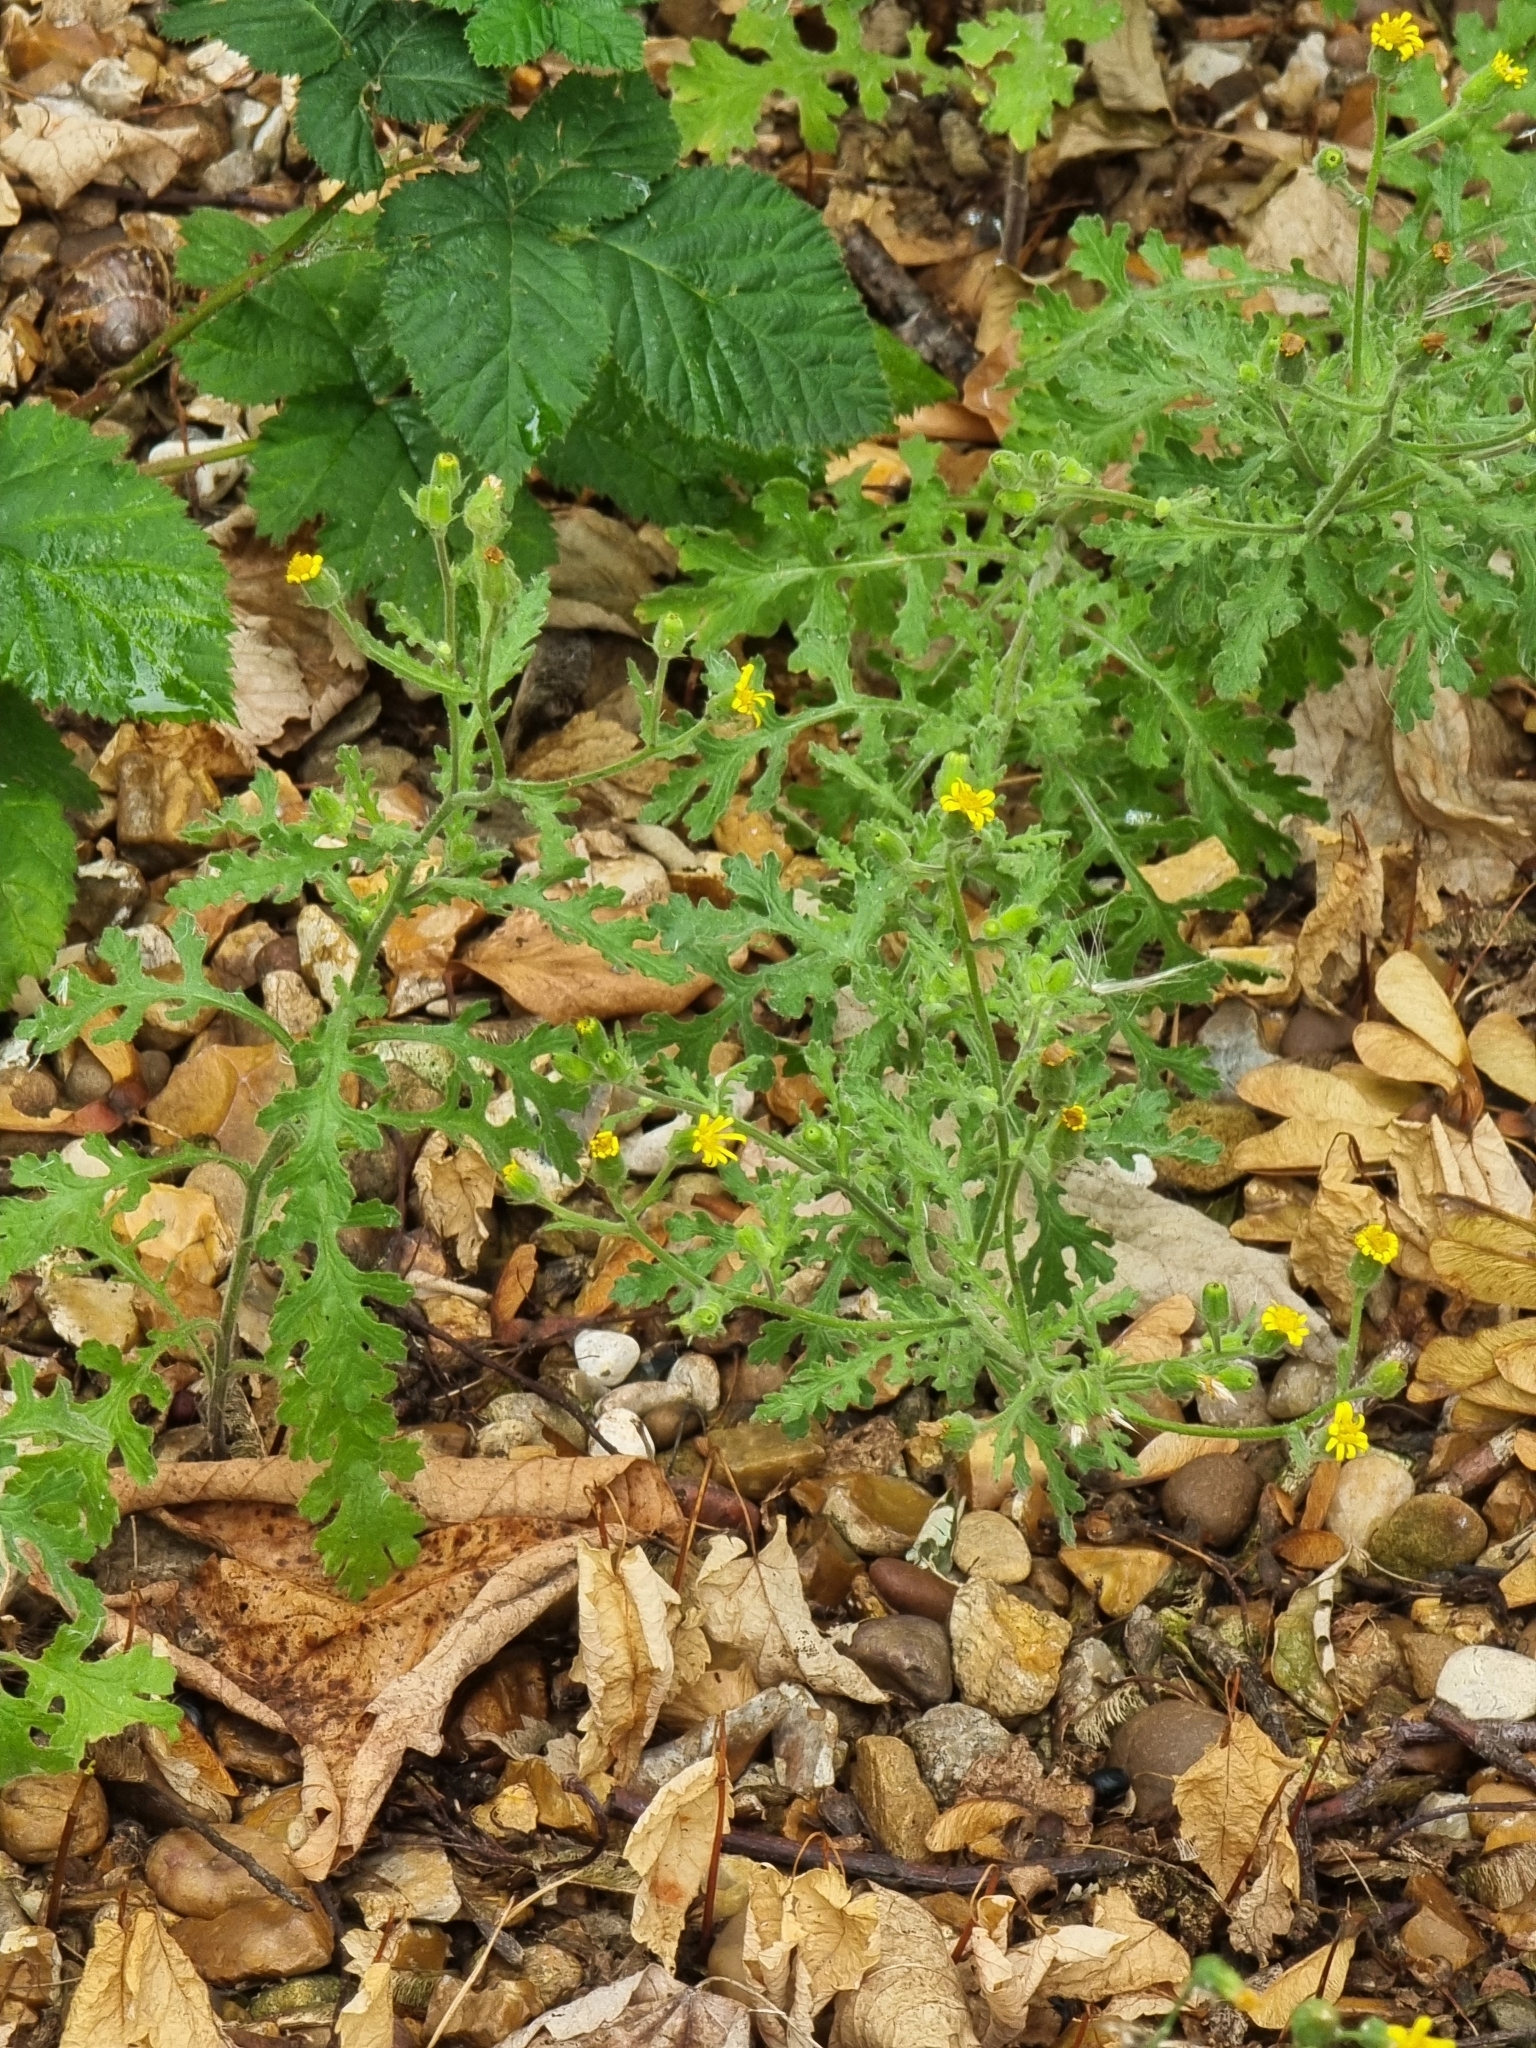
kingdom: Plantae
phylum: Tracheophyta
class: Magnoliopsida
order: Asterales
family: Asteraceae
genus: Senecio
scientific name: Senecio viscosus
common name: Sticky groundsel
